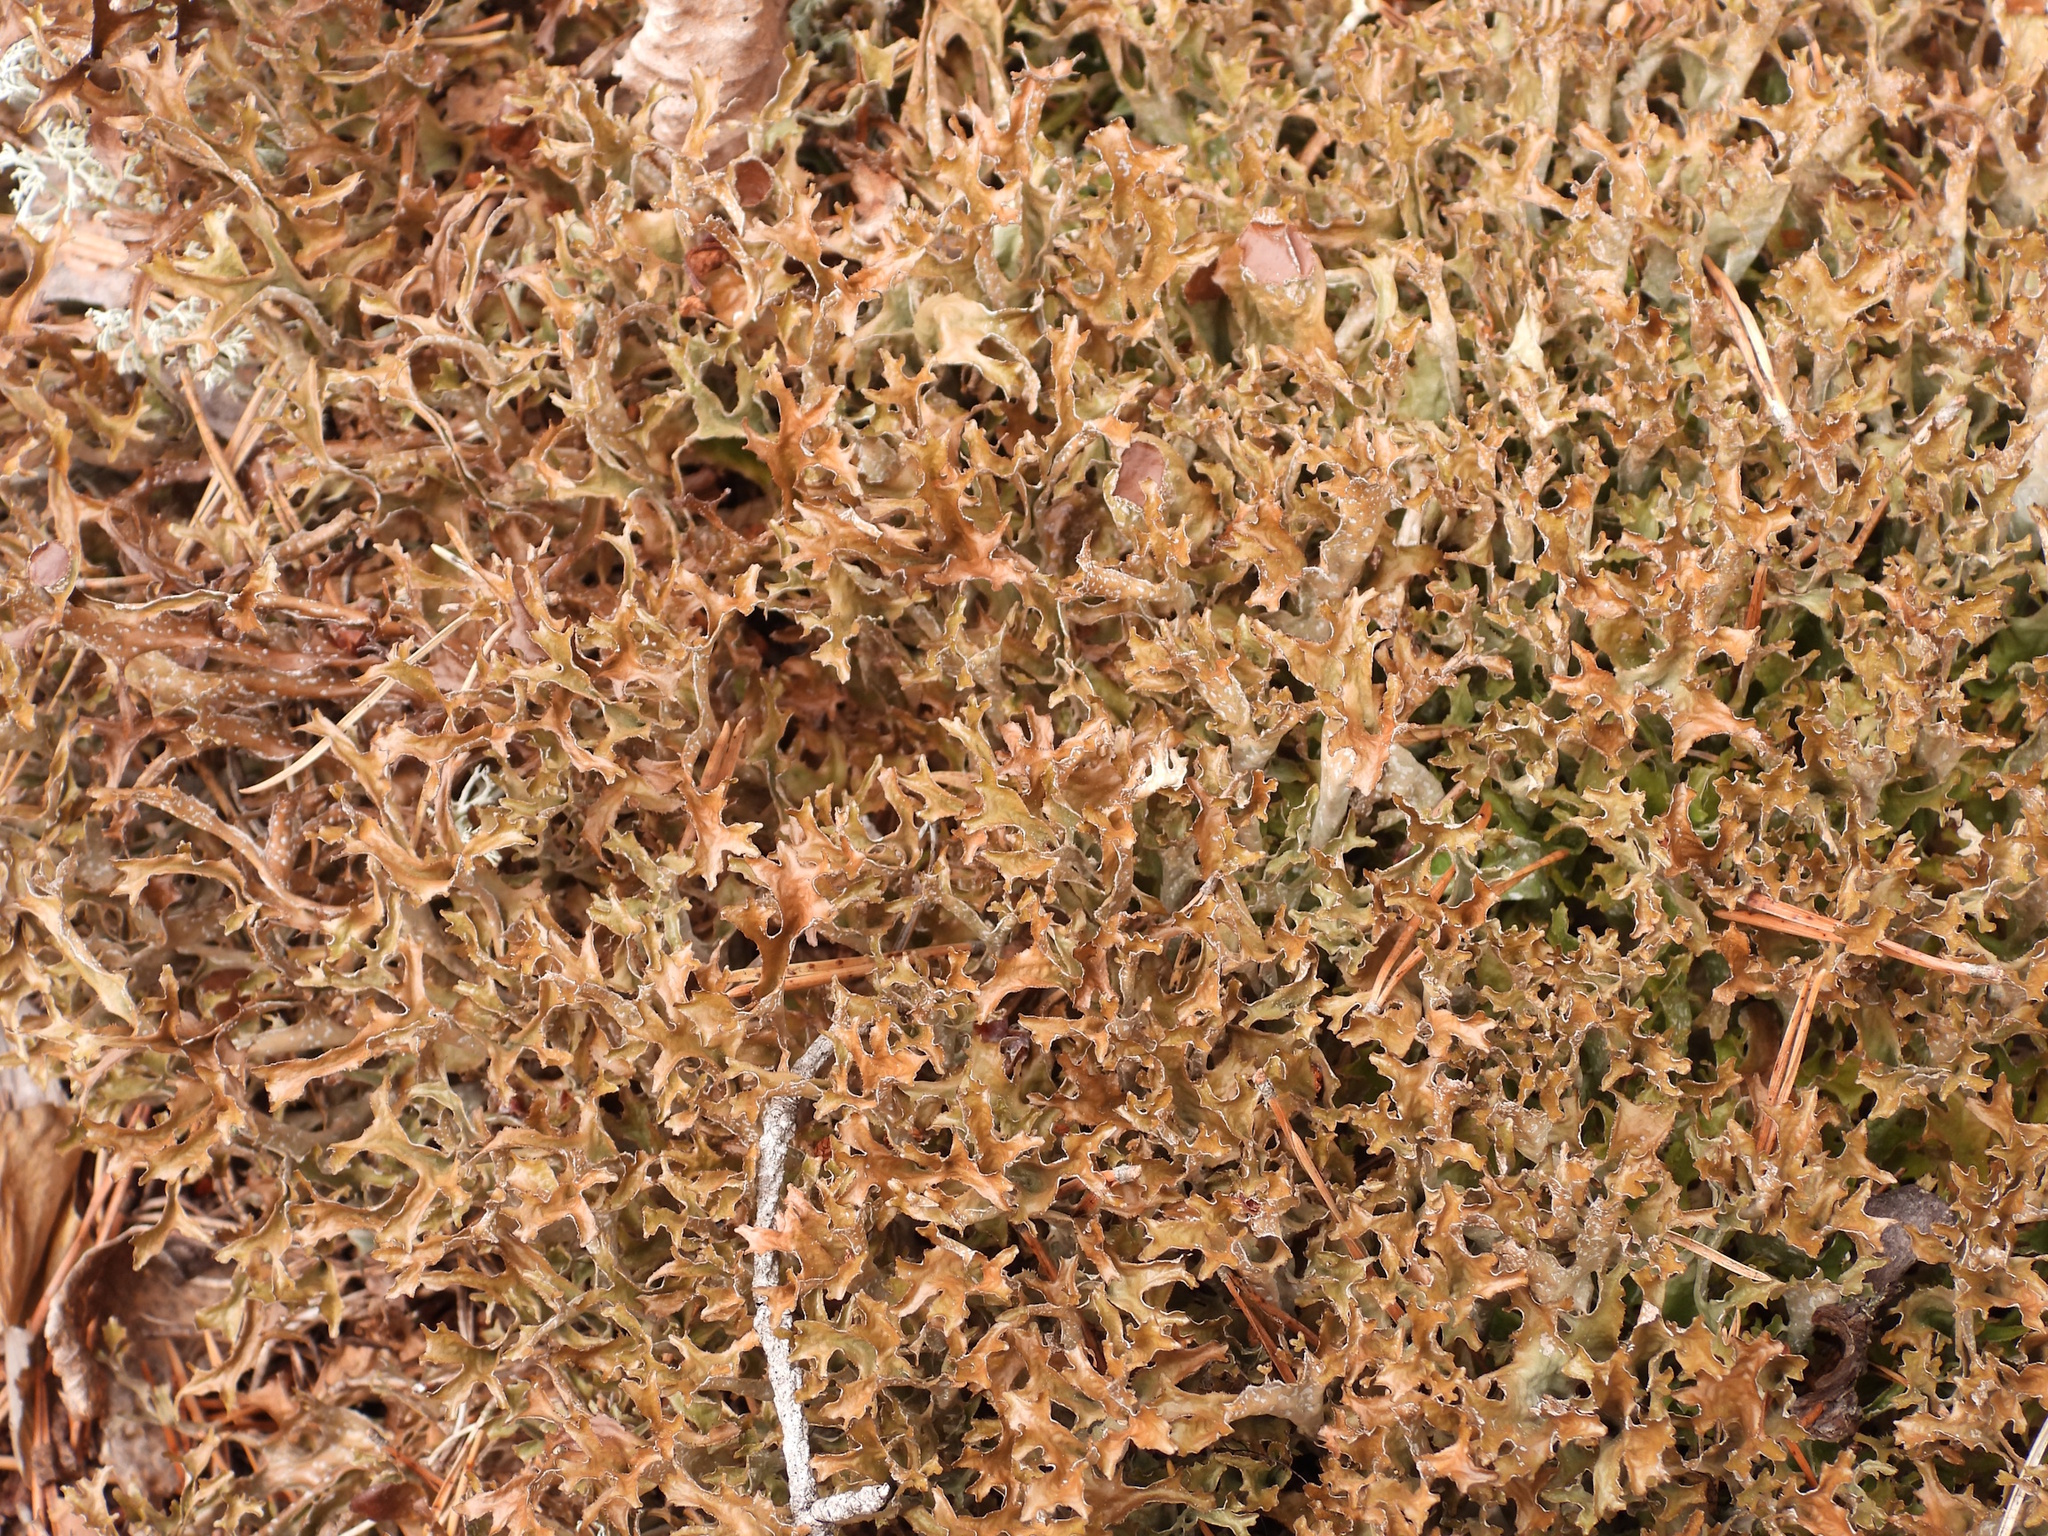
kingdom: Fungi
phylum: Ascomycota
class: Lecanoromycetes
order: Lecanorales
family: Parmeliaceae
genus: Cetraria
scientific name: Cetraria islandica
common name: Iceland lichen
